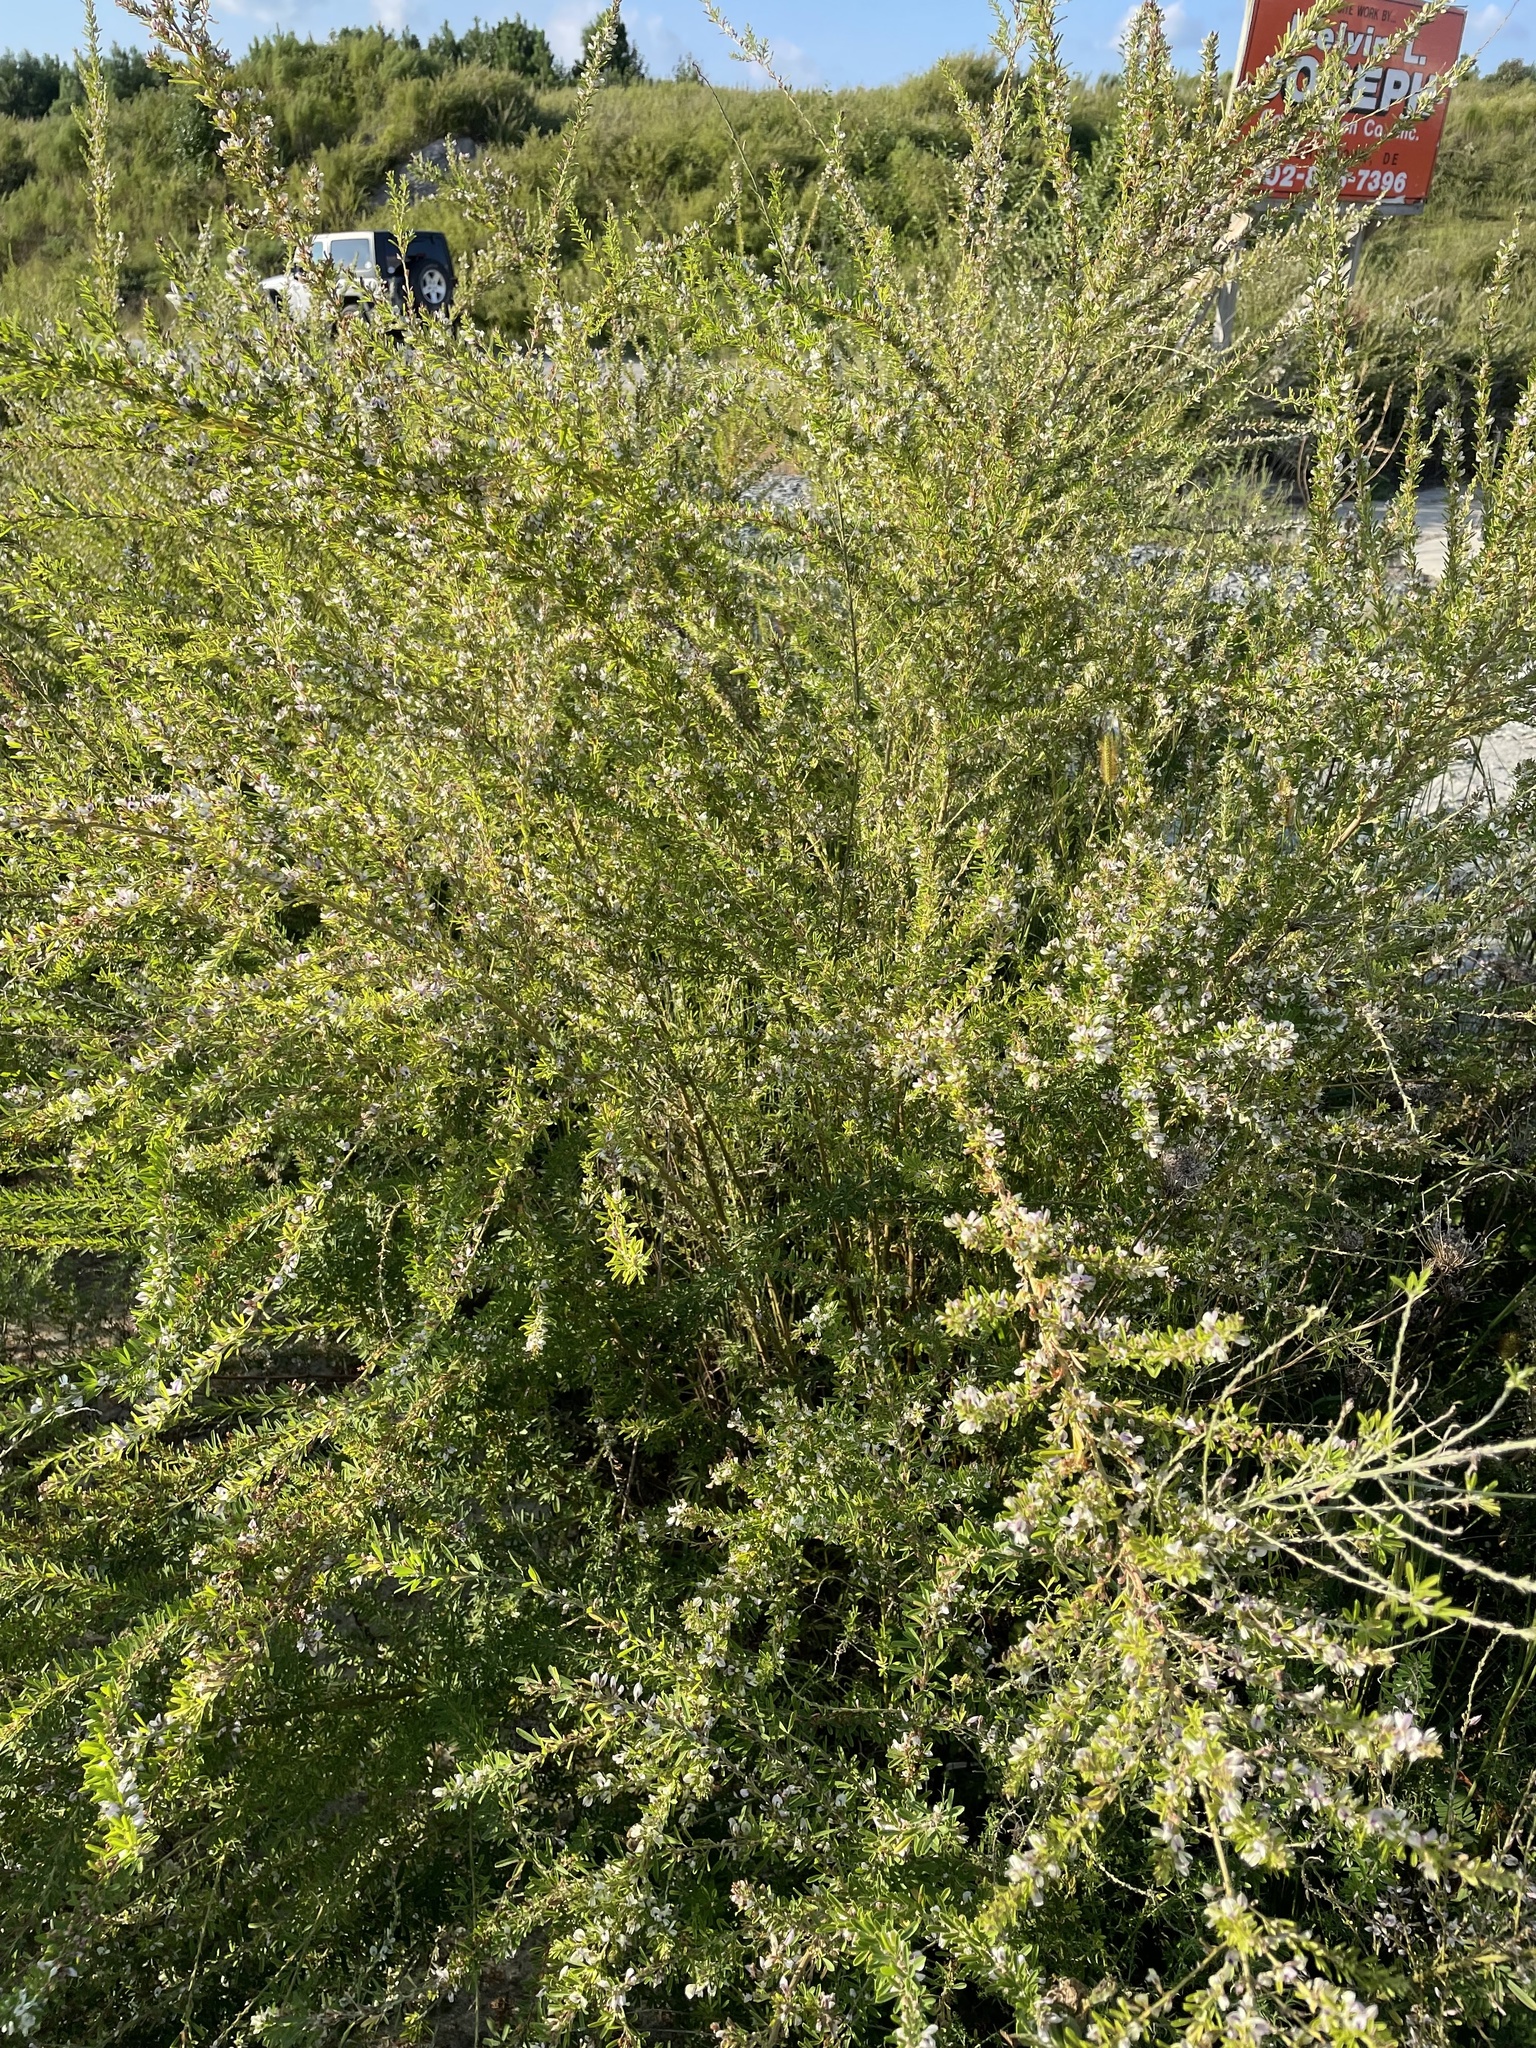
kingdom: Plantae
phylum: Tracheophyta
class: Magnoliopsida
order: Fabales
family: Fabaceae
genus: Lespedeza
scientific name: Lespedeza cuneata
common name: Chinese bush-clover
